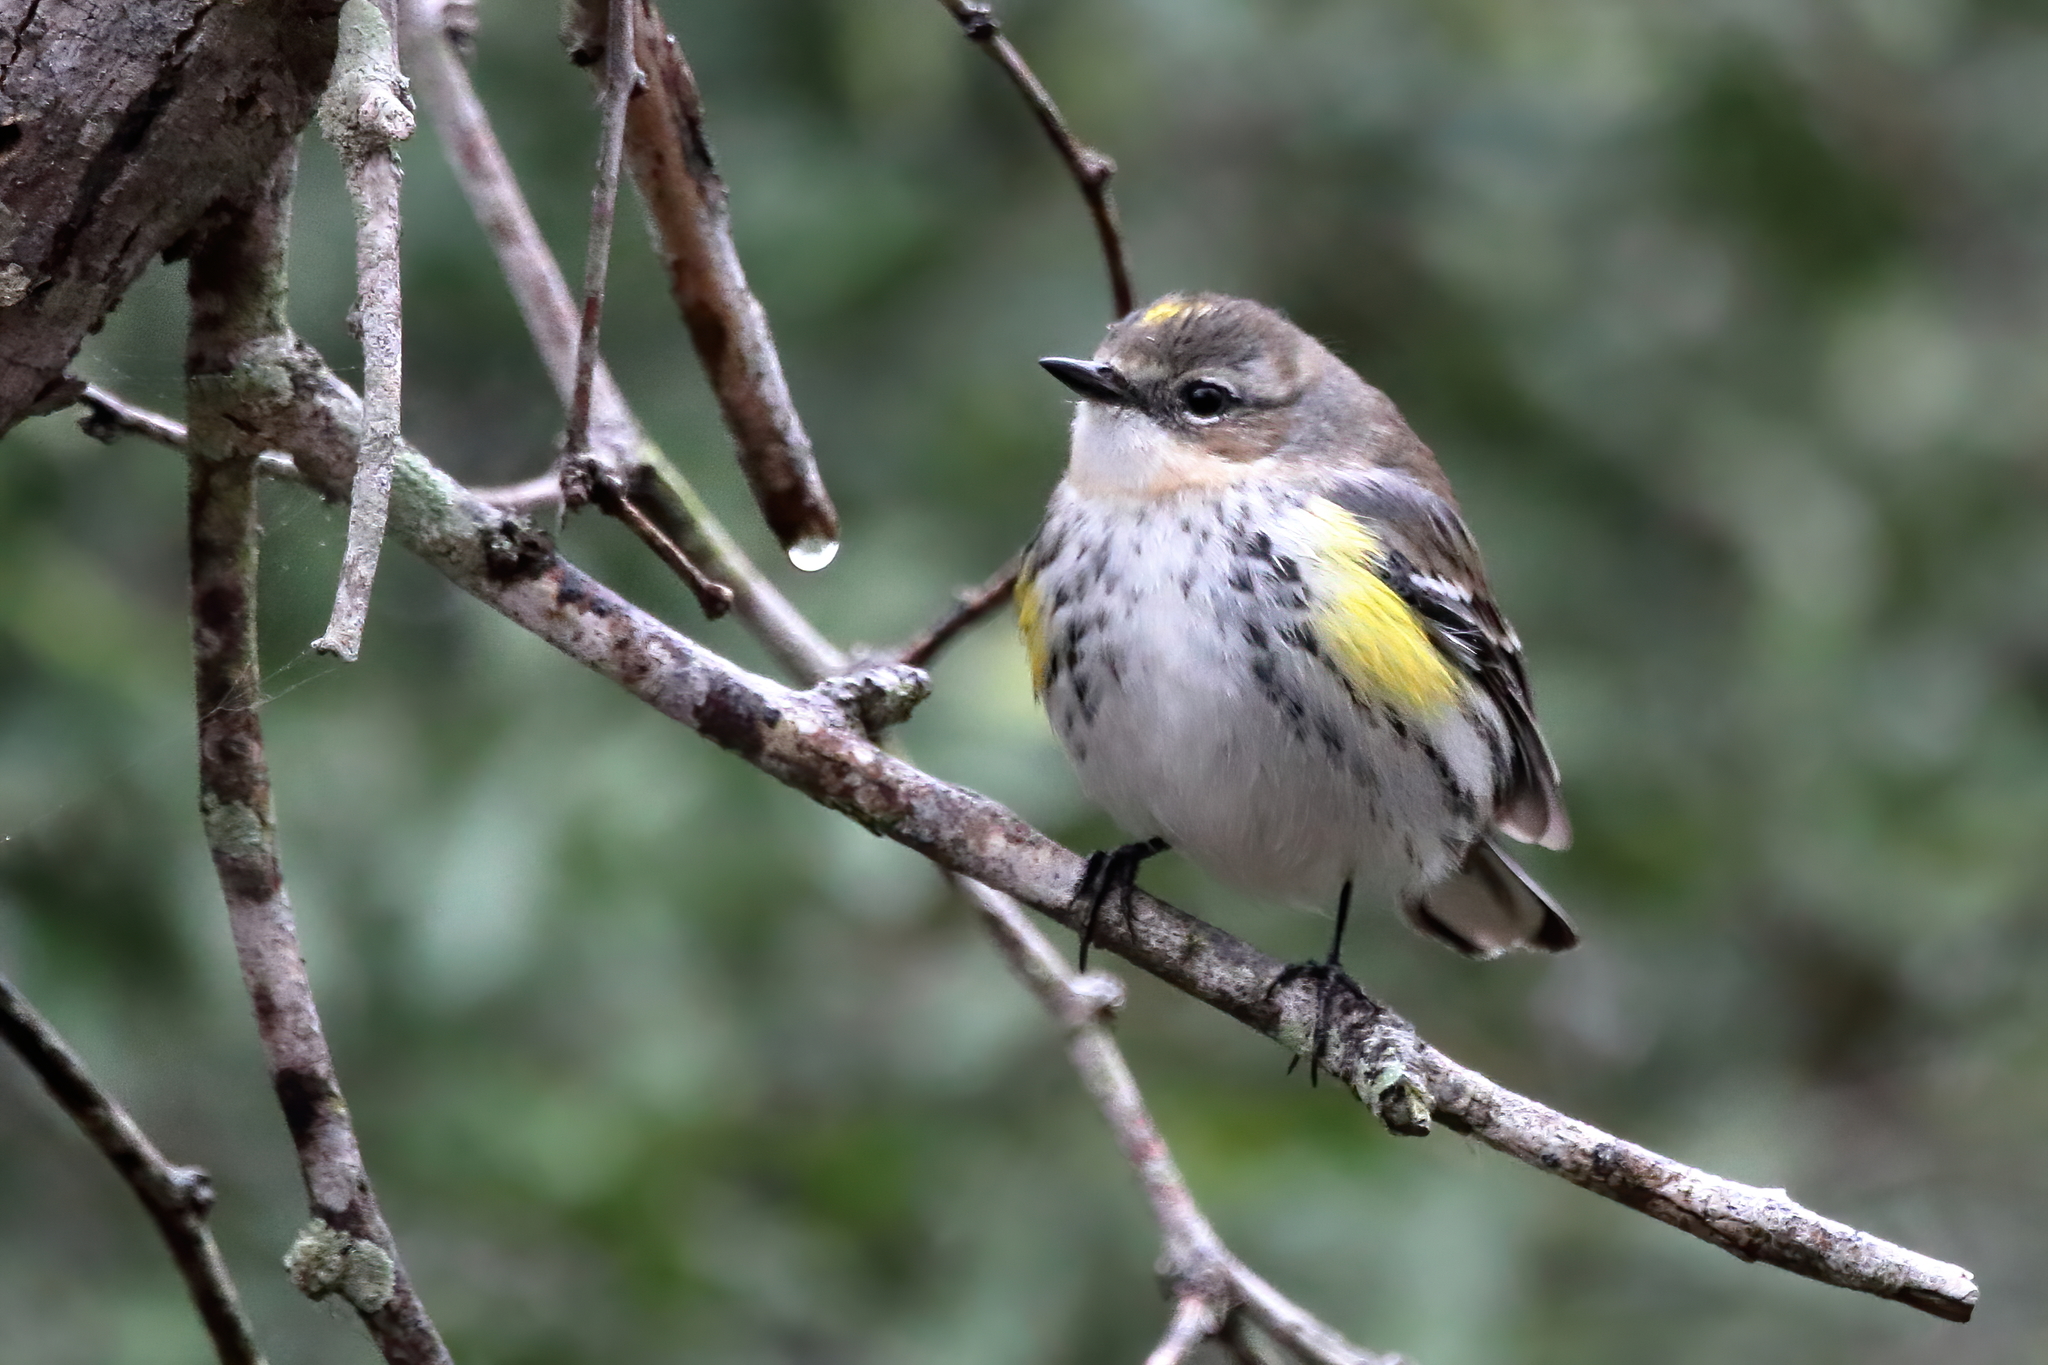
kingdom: Animalia
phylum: Chordata
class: Aves
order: Passeriformes
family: Parulidae
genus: Setophaga
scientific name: Setophaga coronata
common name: Myrtle warbler
